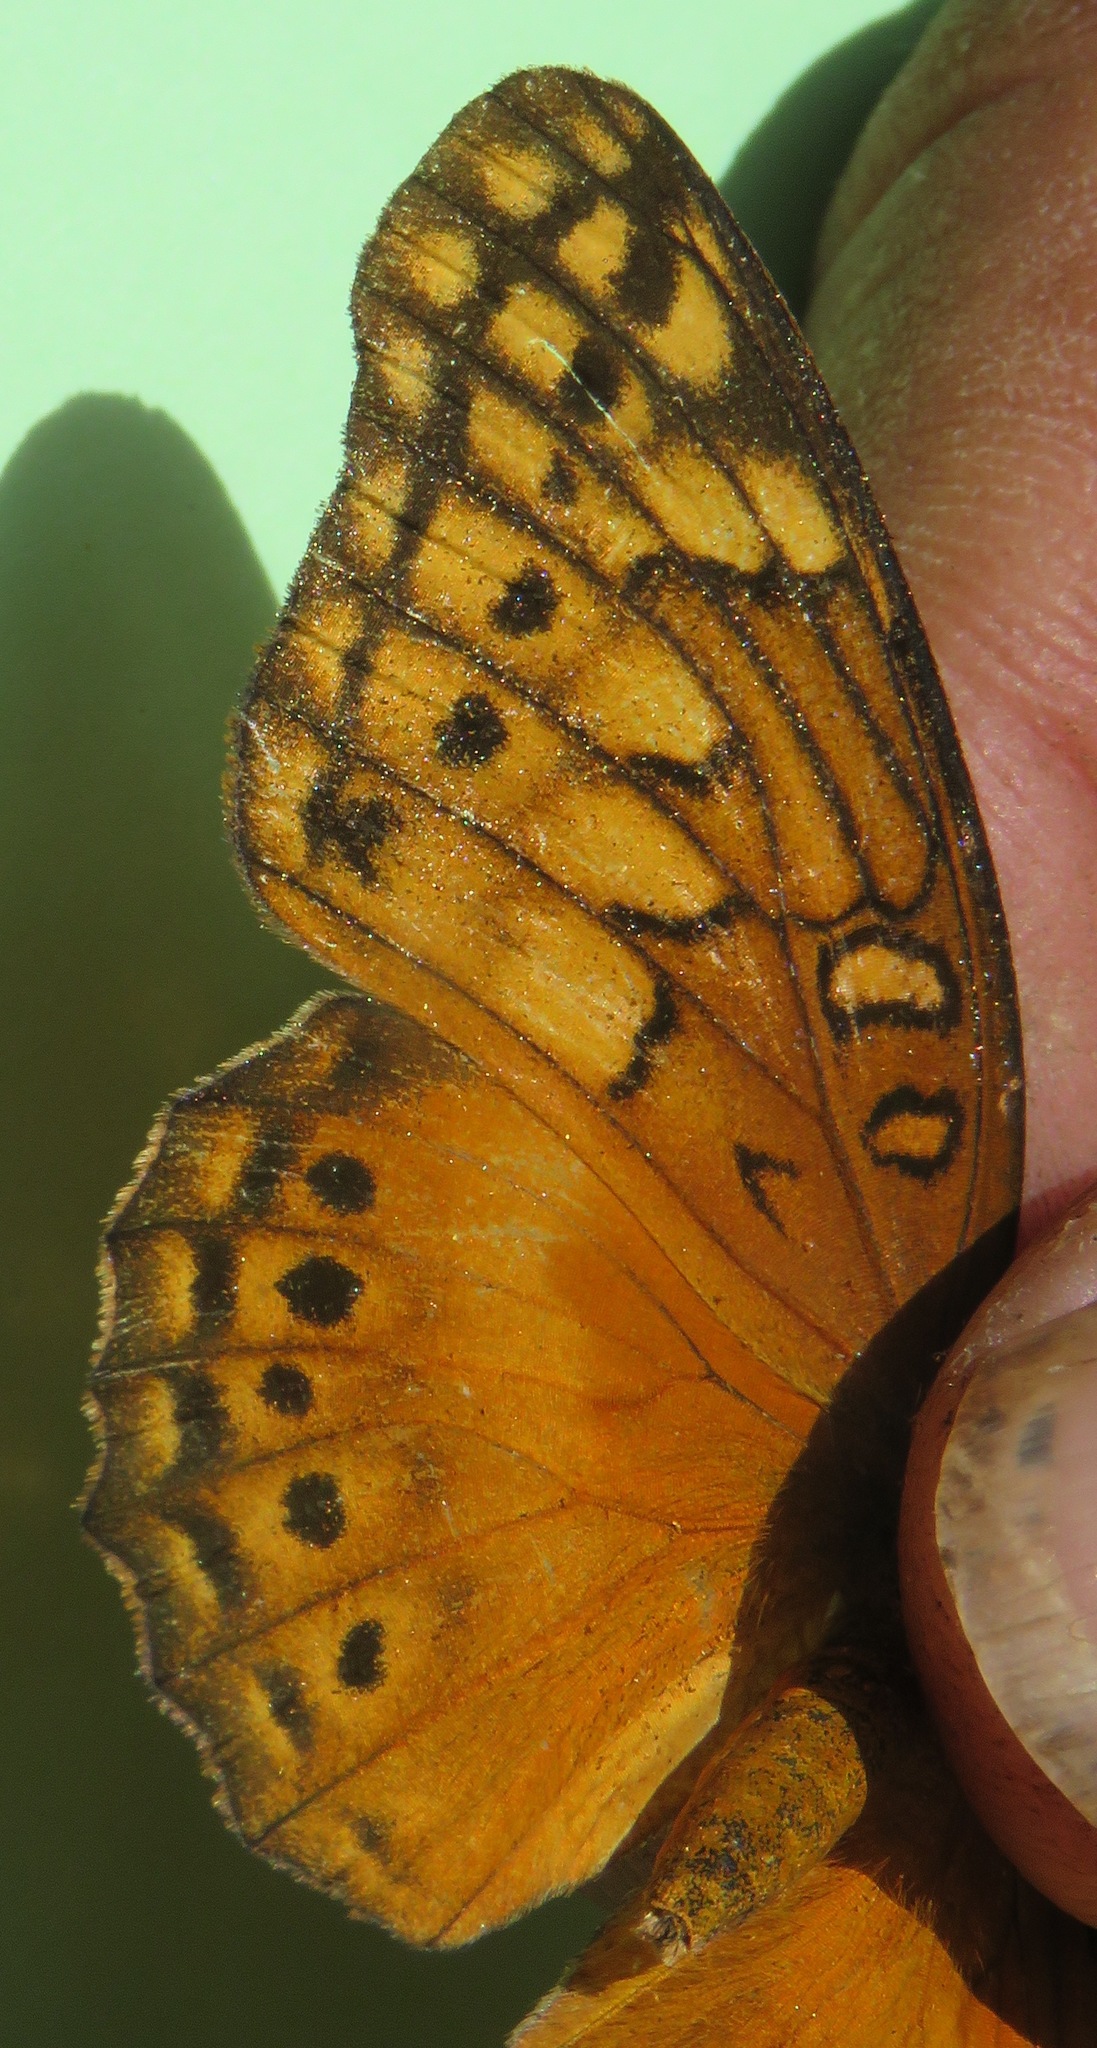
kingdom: Animalia
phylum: Arthropoda
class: Insecta
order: Lepidoptera
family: Nymphalidae
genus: Euptoieta
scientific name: Euptoieta hegesia
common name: Mexican fritillary
